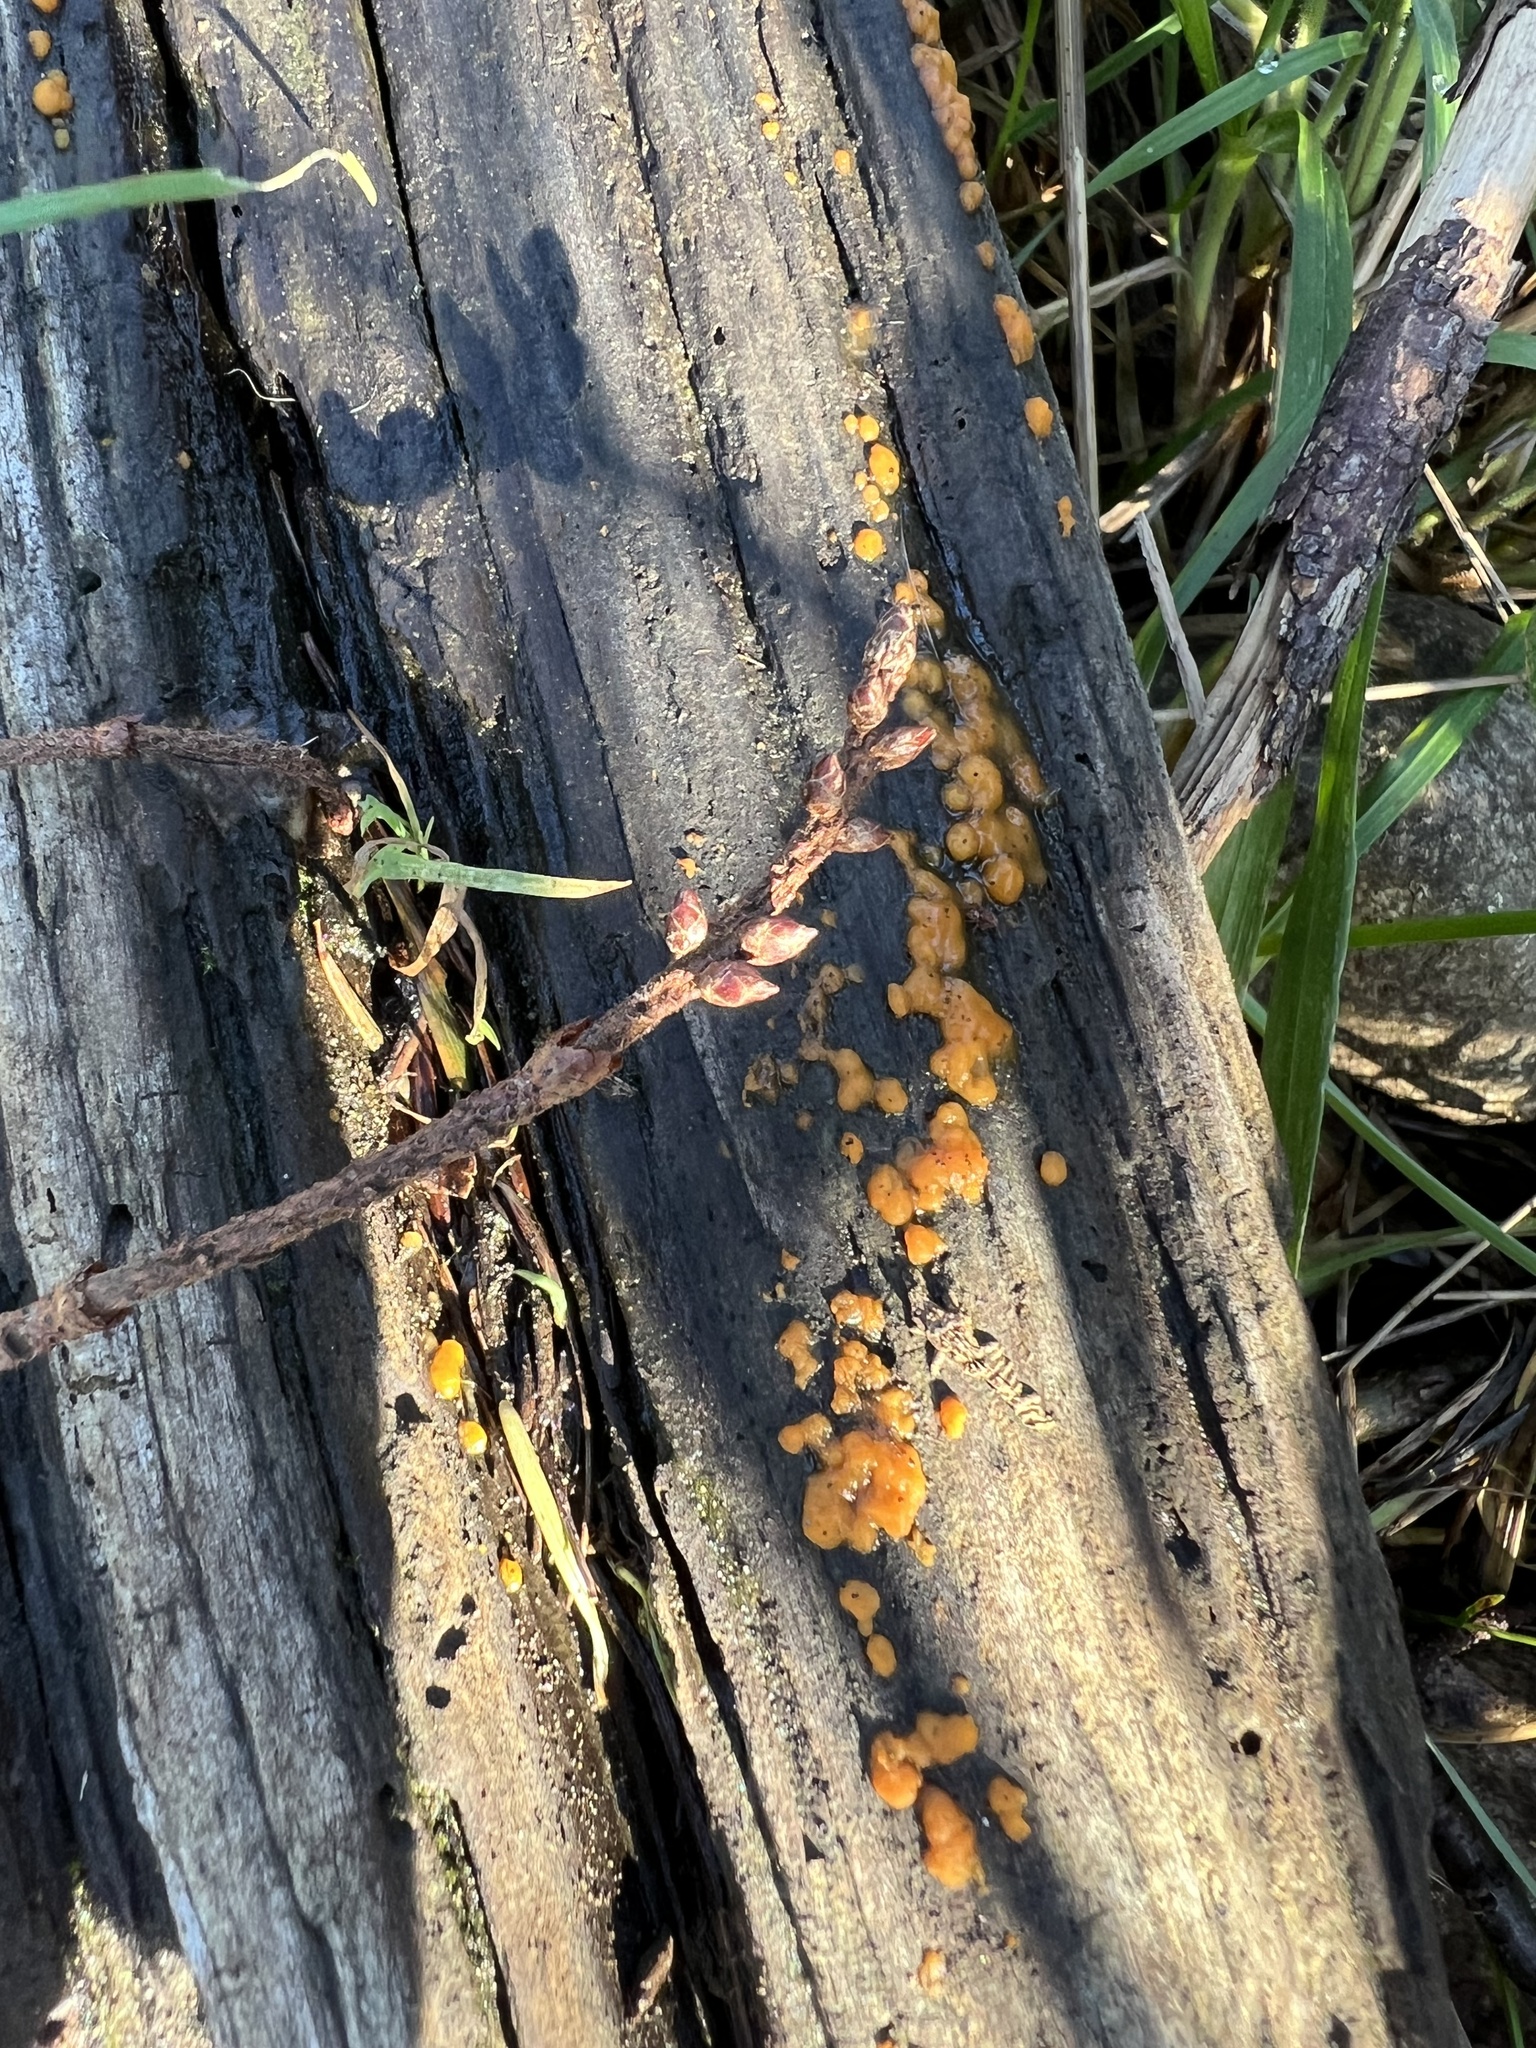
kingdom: Fungi
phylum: Basidiomycota
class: Dacrymycetes
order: Dacrymycetales
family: Dacrymycetaceae
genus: Dacrymyces
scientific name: Dacrymyces stillatus
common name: Common jelly spot
